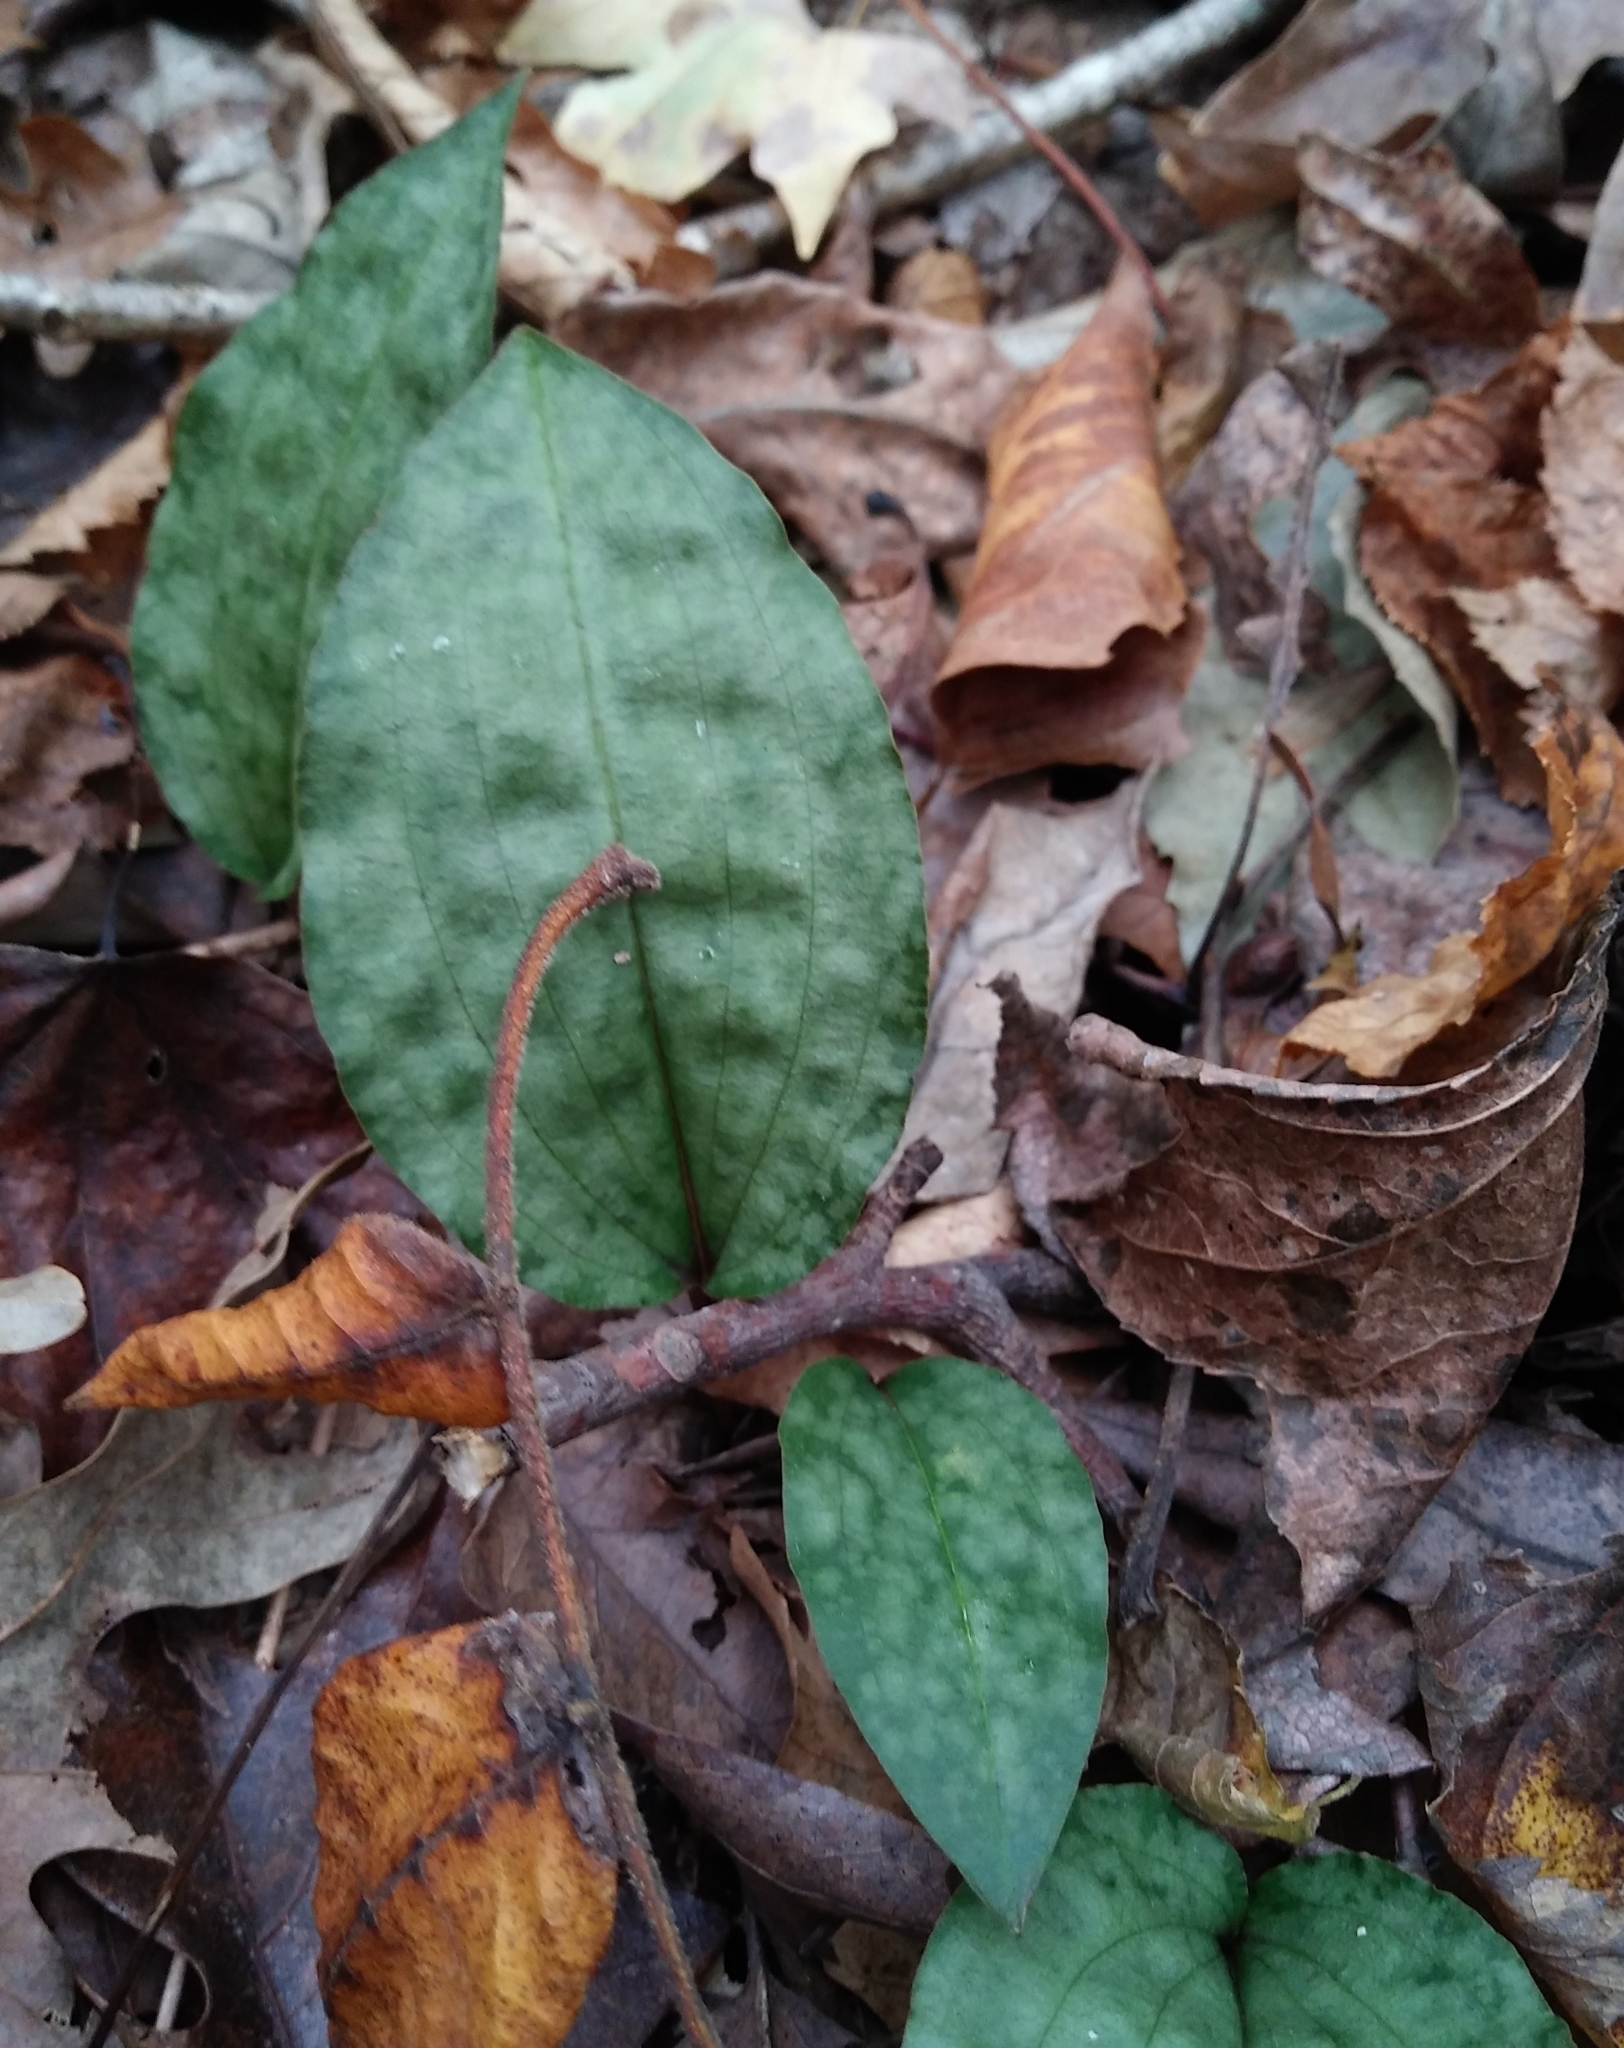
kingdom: Plantae
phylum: Tracheophyta
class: Liliopsida
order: Asparagales
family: Orchidaceae
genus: Tipularia
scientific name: Tipularia discolor
